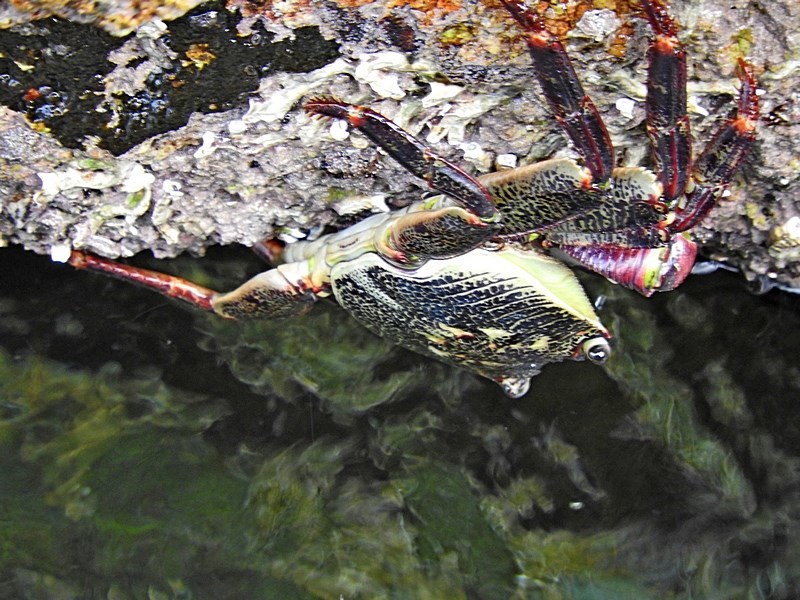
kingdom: Animalia
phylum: Arthropoda
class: Malacostraca
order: Decapoda
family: Grapsidae
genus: Leptograpsus
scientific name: Leptograpsus variegatus
